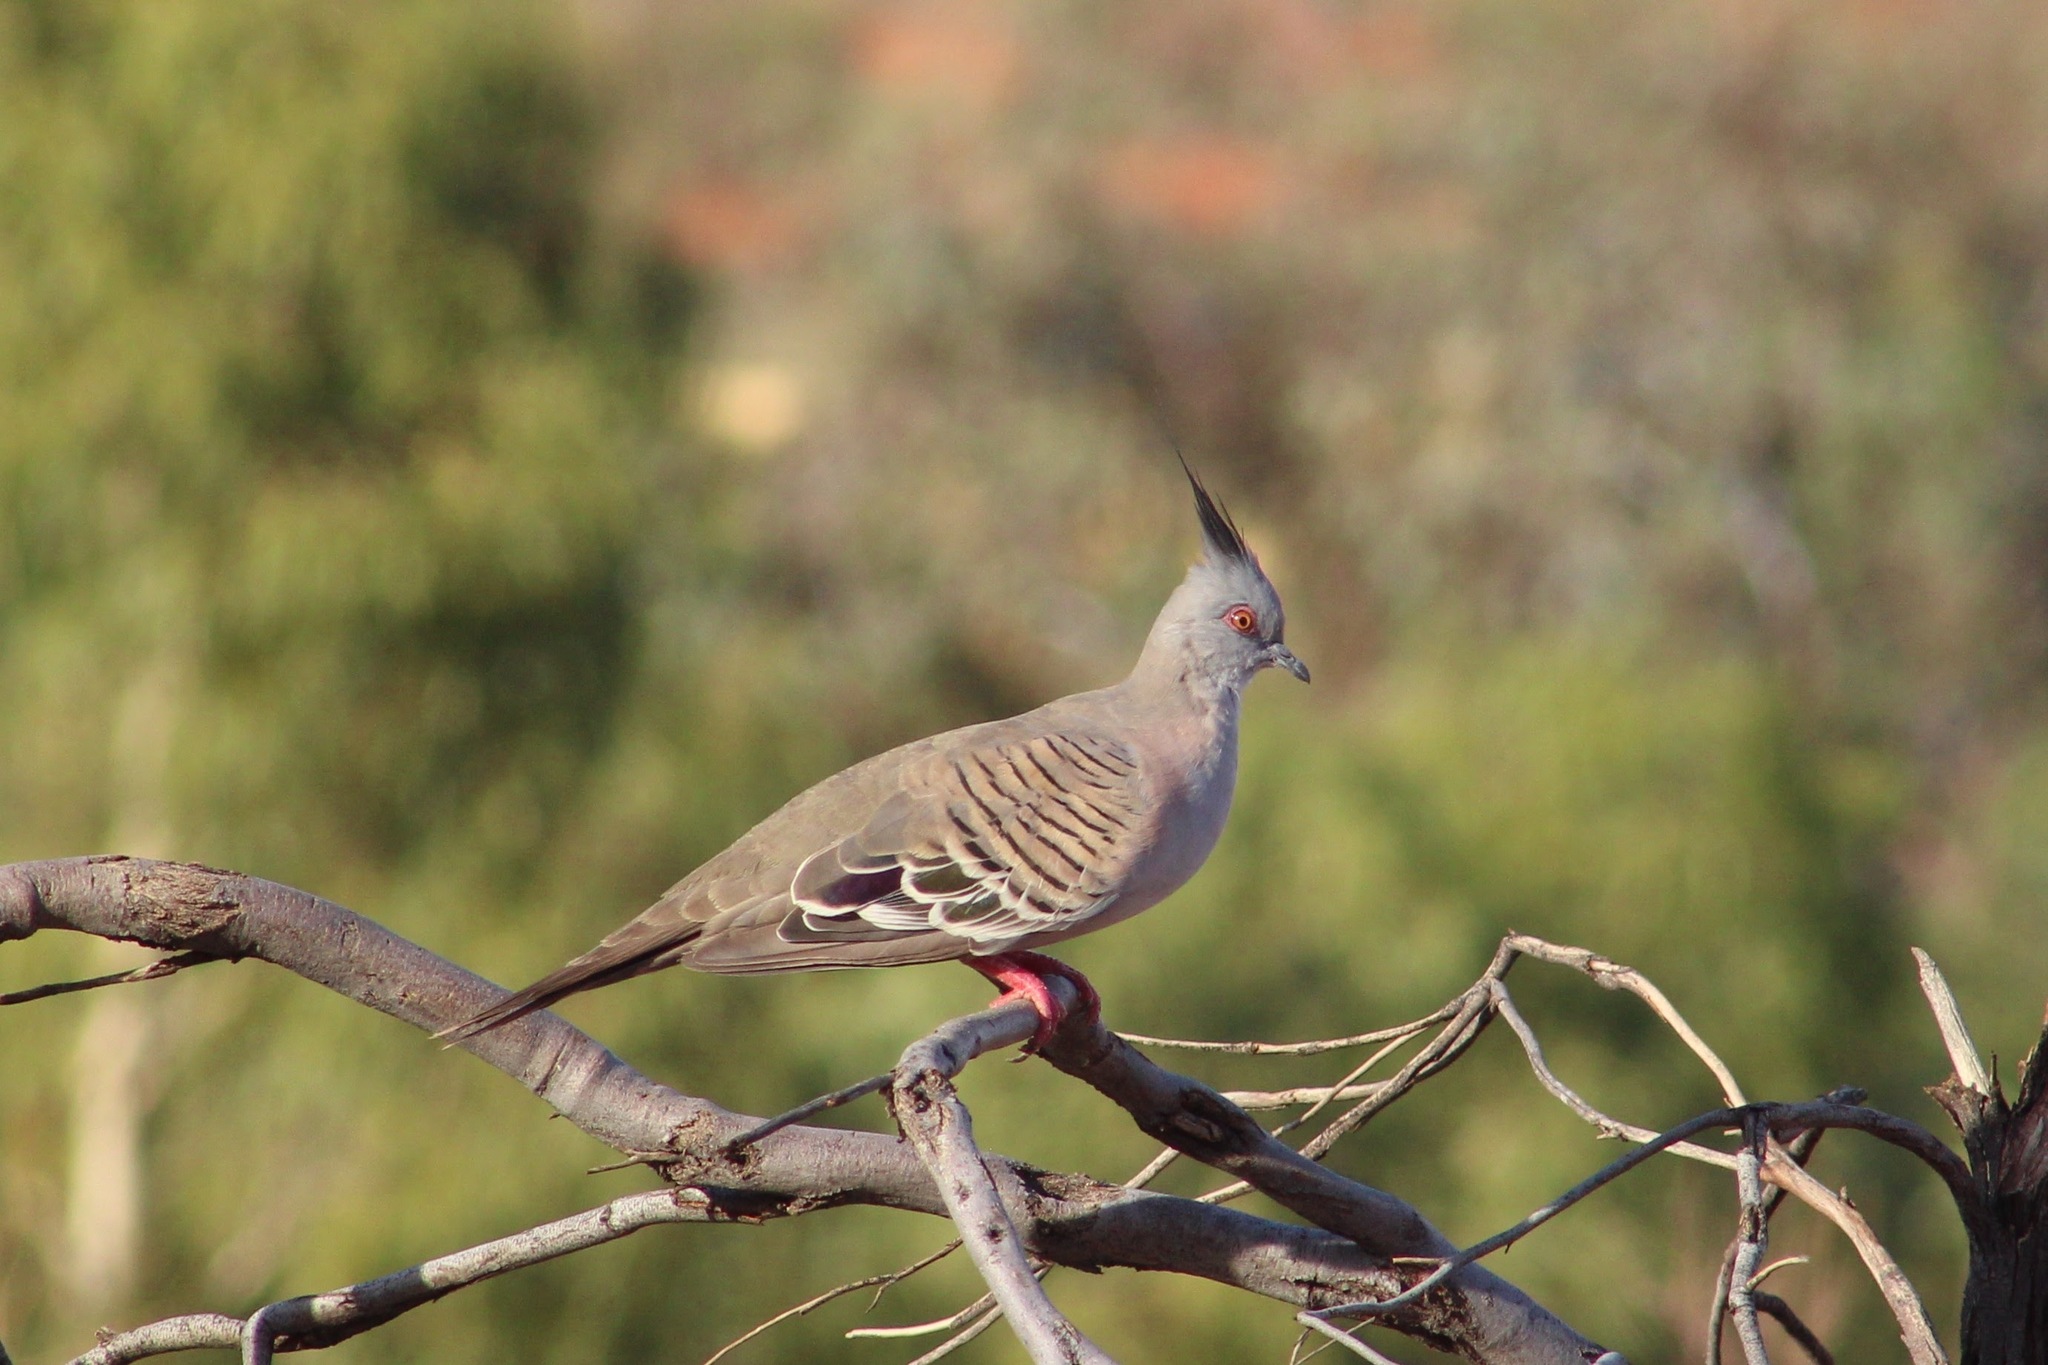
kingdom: Animalia
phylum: Chordata
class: Aves
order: Columbiformes
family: Columbidae
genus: Ocyphaps
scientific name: Ocyphaps lophotes
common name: Crested pigeon
